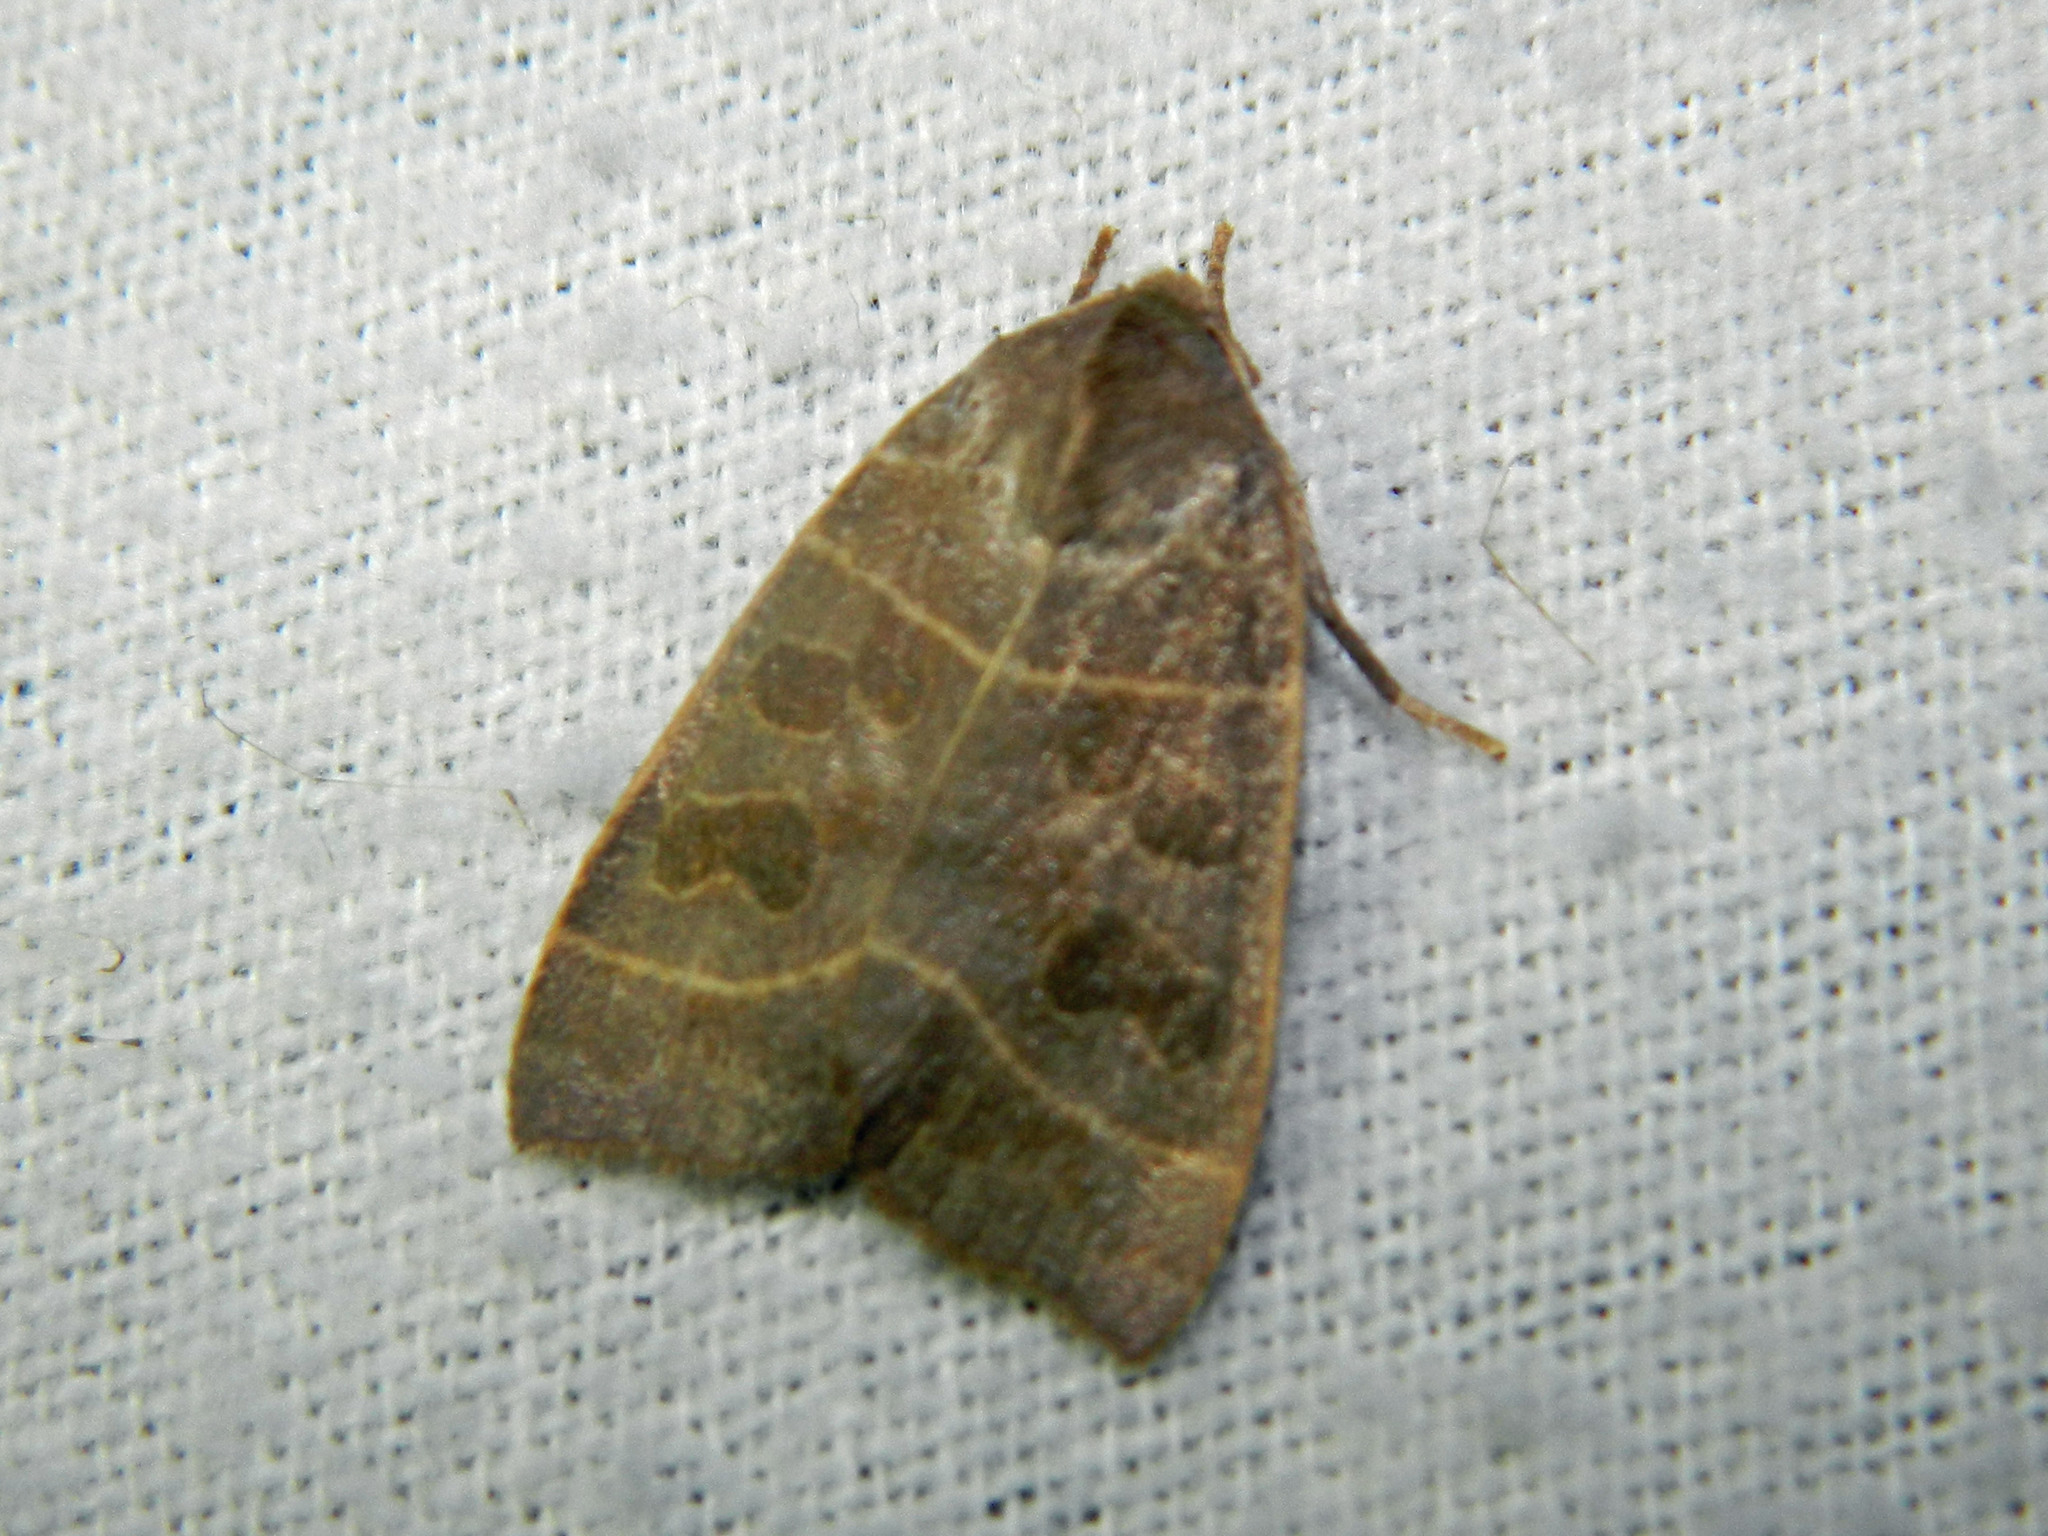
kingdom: Animalia
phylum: Arthropoda
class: Insecta
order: Lepidoptera
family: Noctuidae
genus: Ipimorpha
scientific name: Ipimorpha pleonectusa
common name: Even-lined sallow
